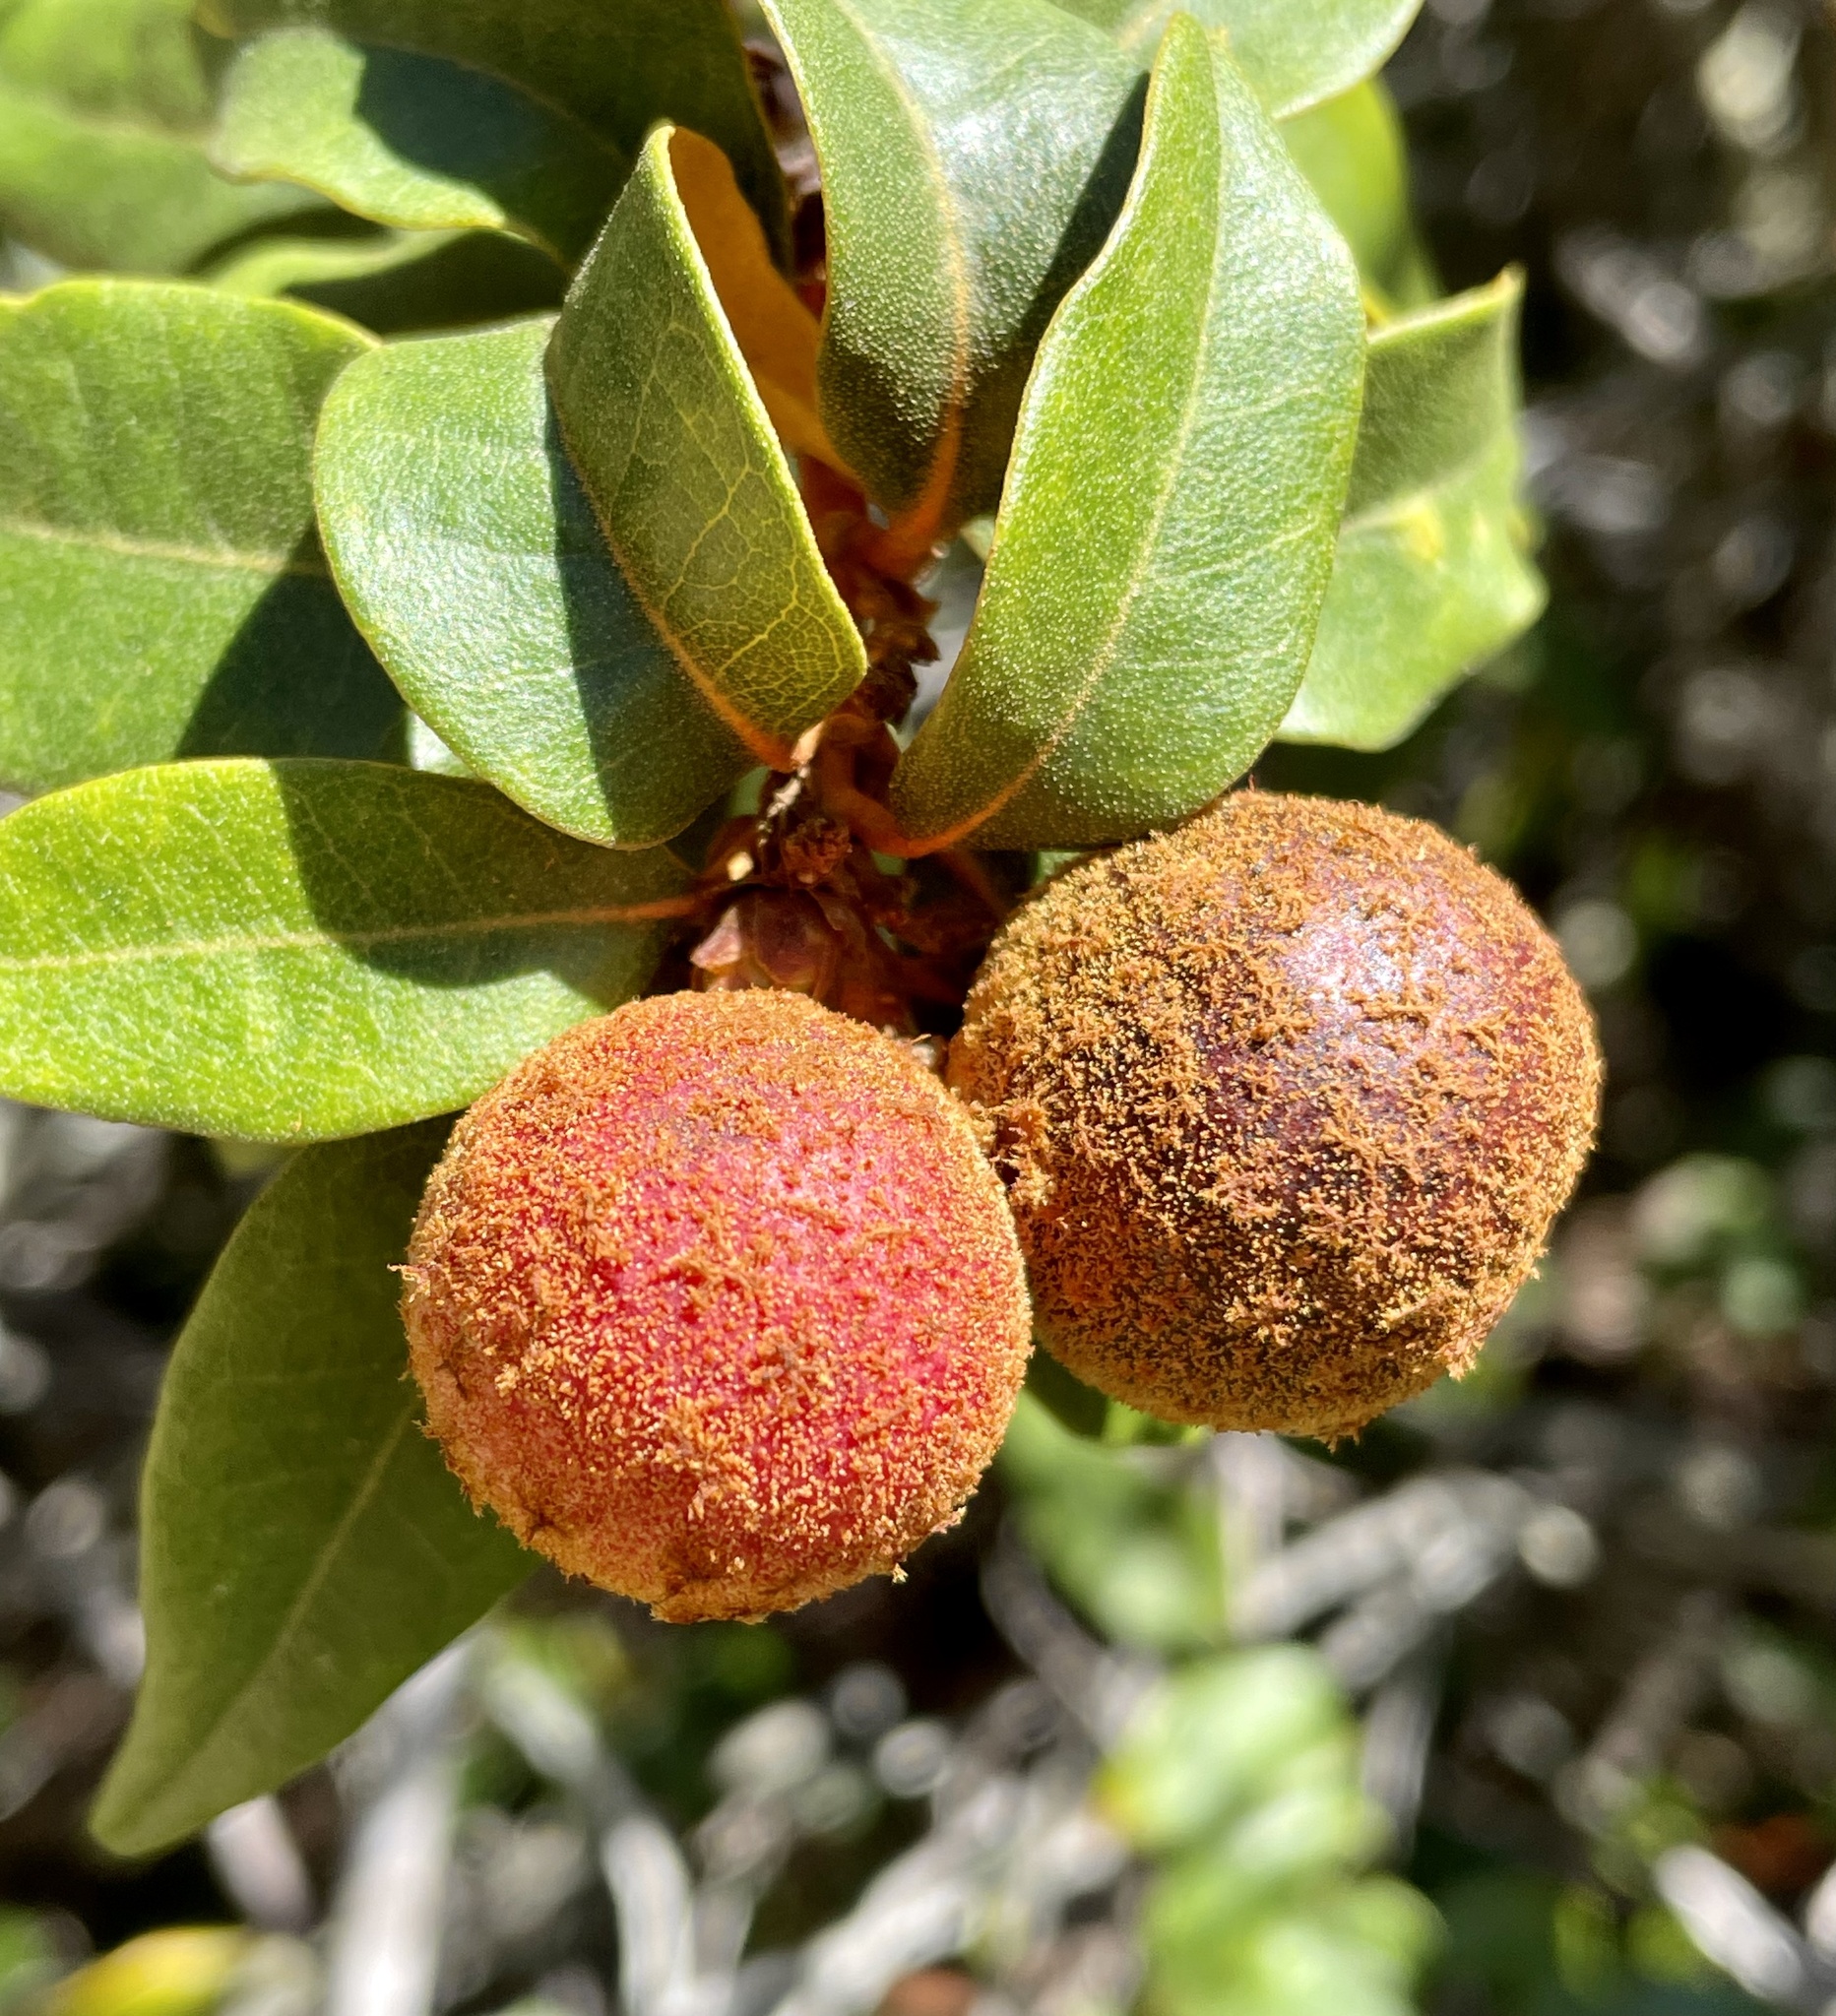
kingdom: Animalia
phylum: Arthropoda
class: Insecta
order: Hymenoptera
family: Cynipidae
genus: Synergus
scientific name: Synergus castanopsidis
